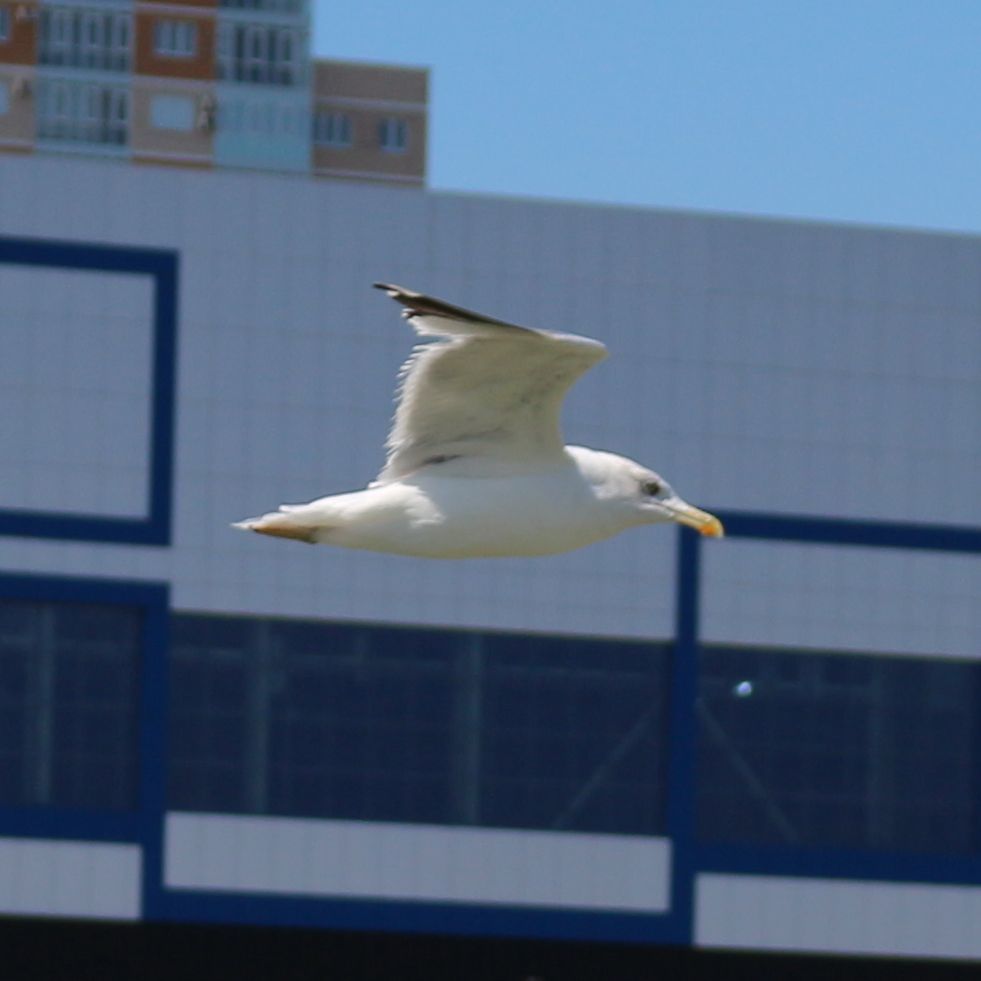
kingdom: Animalia
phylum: Chordata
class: Aves
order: Charadriiformes
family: Laridae
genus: Larus
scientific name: Larus michahellis
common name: Yellow-legged gull
